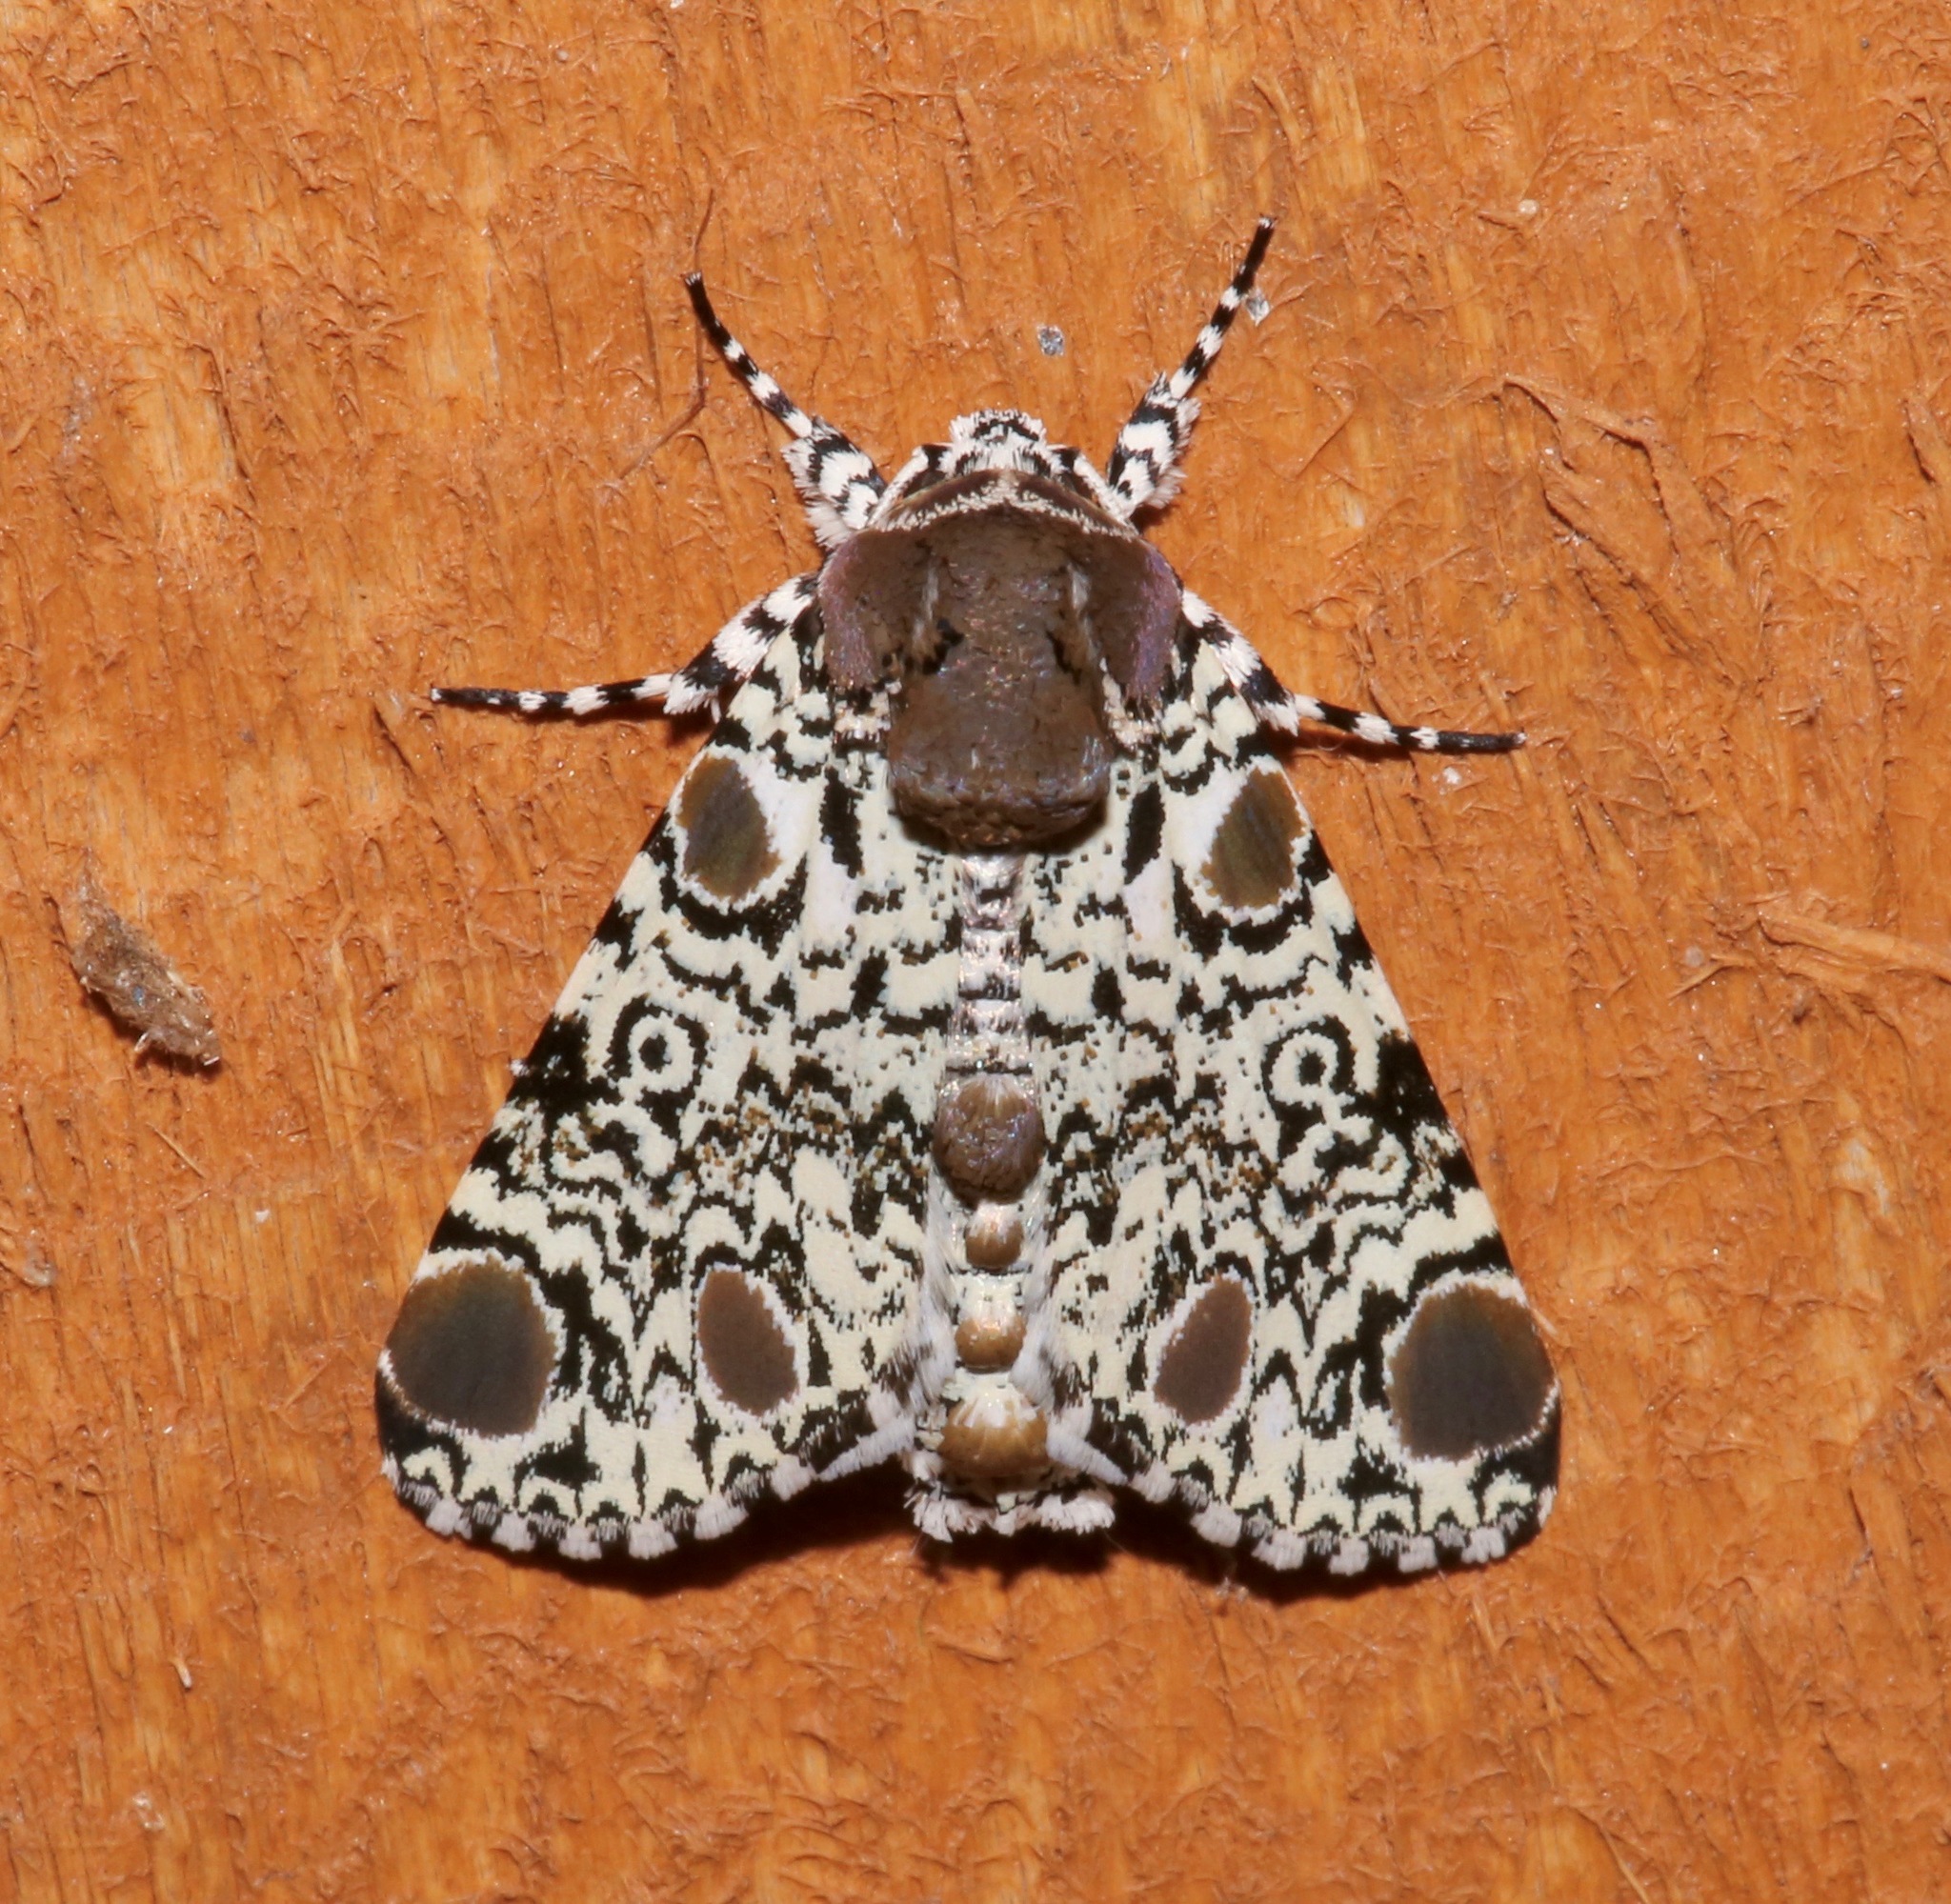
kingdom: Animalia
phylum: Arthropoda
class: Insecta
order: Lepidoptera
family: Noctuidae
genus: Harrisimemna
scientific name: Harrisimemna trisignata
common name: Harris threespot
